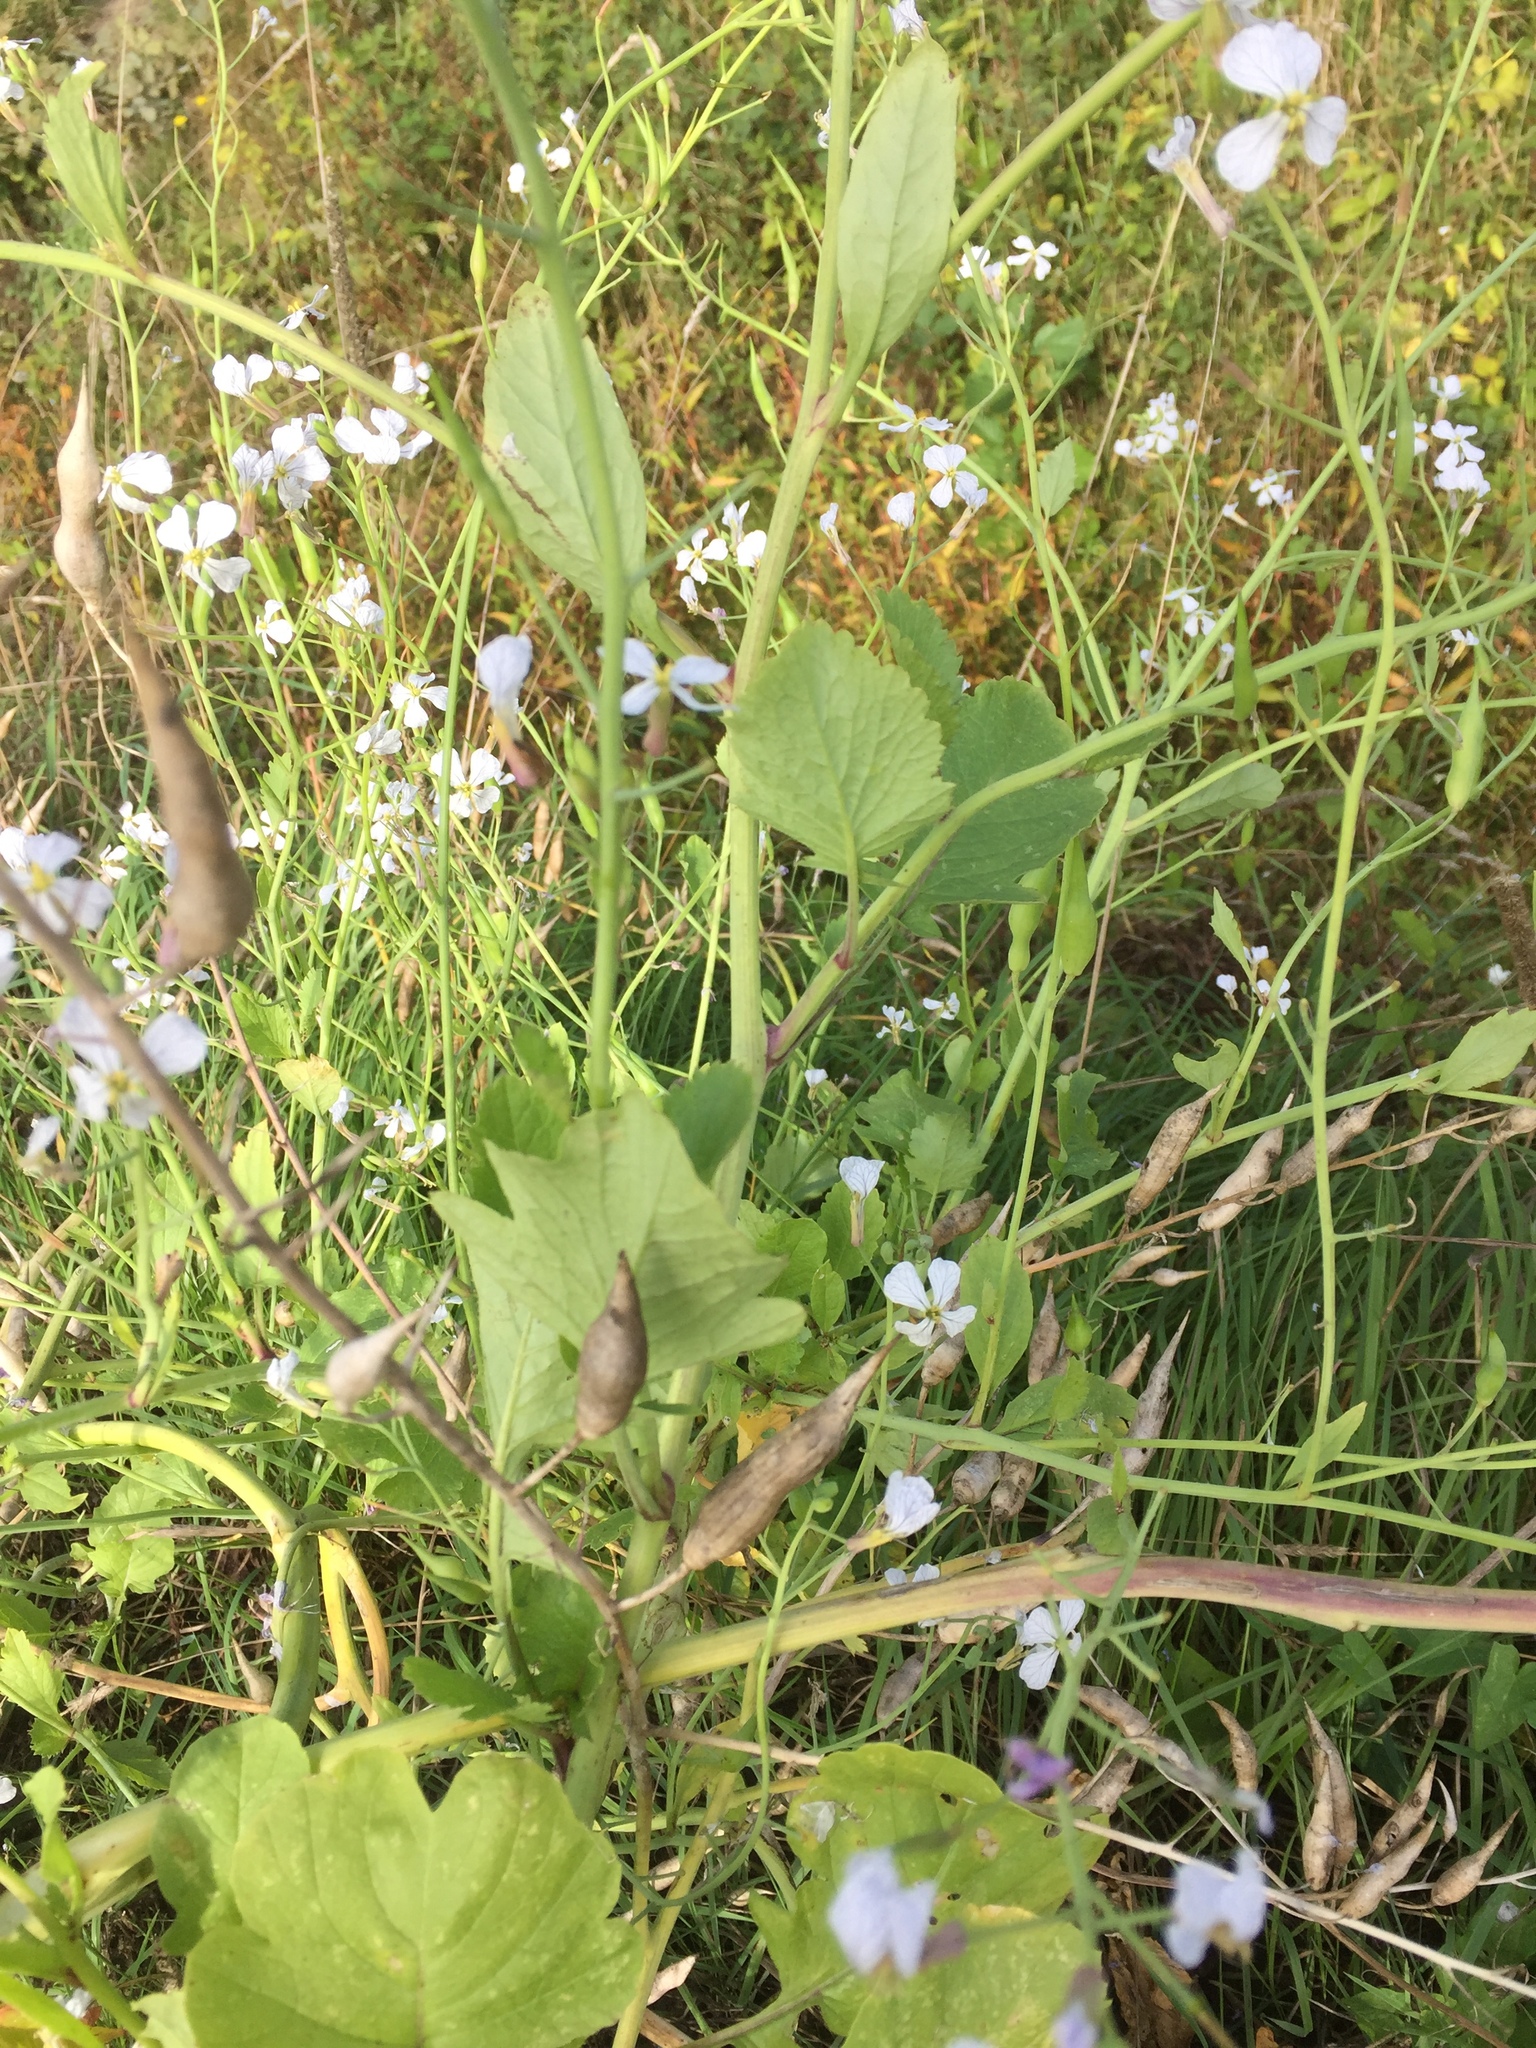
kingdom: Plantae
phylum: Tracheophyta
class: Magnoliopsida
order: Brassicales
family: Brassicaceae
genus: Raphanus
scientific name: Raphanus sativus
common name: Cultivated radish
